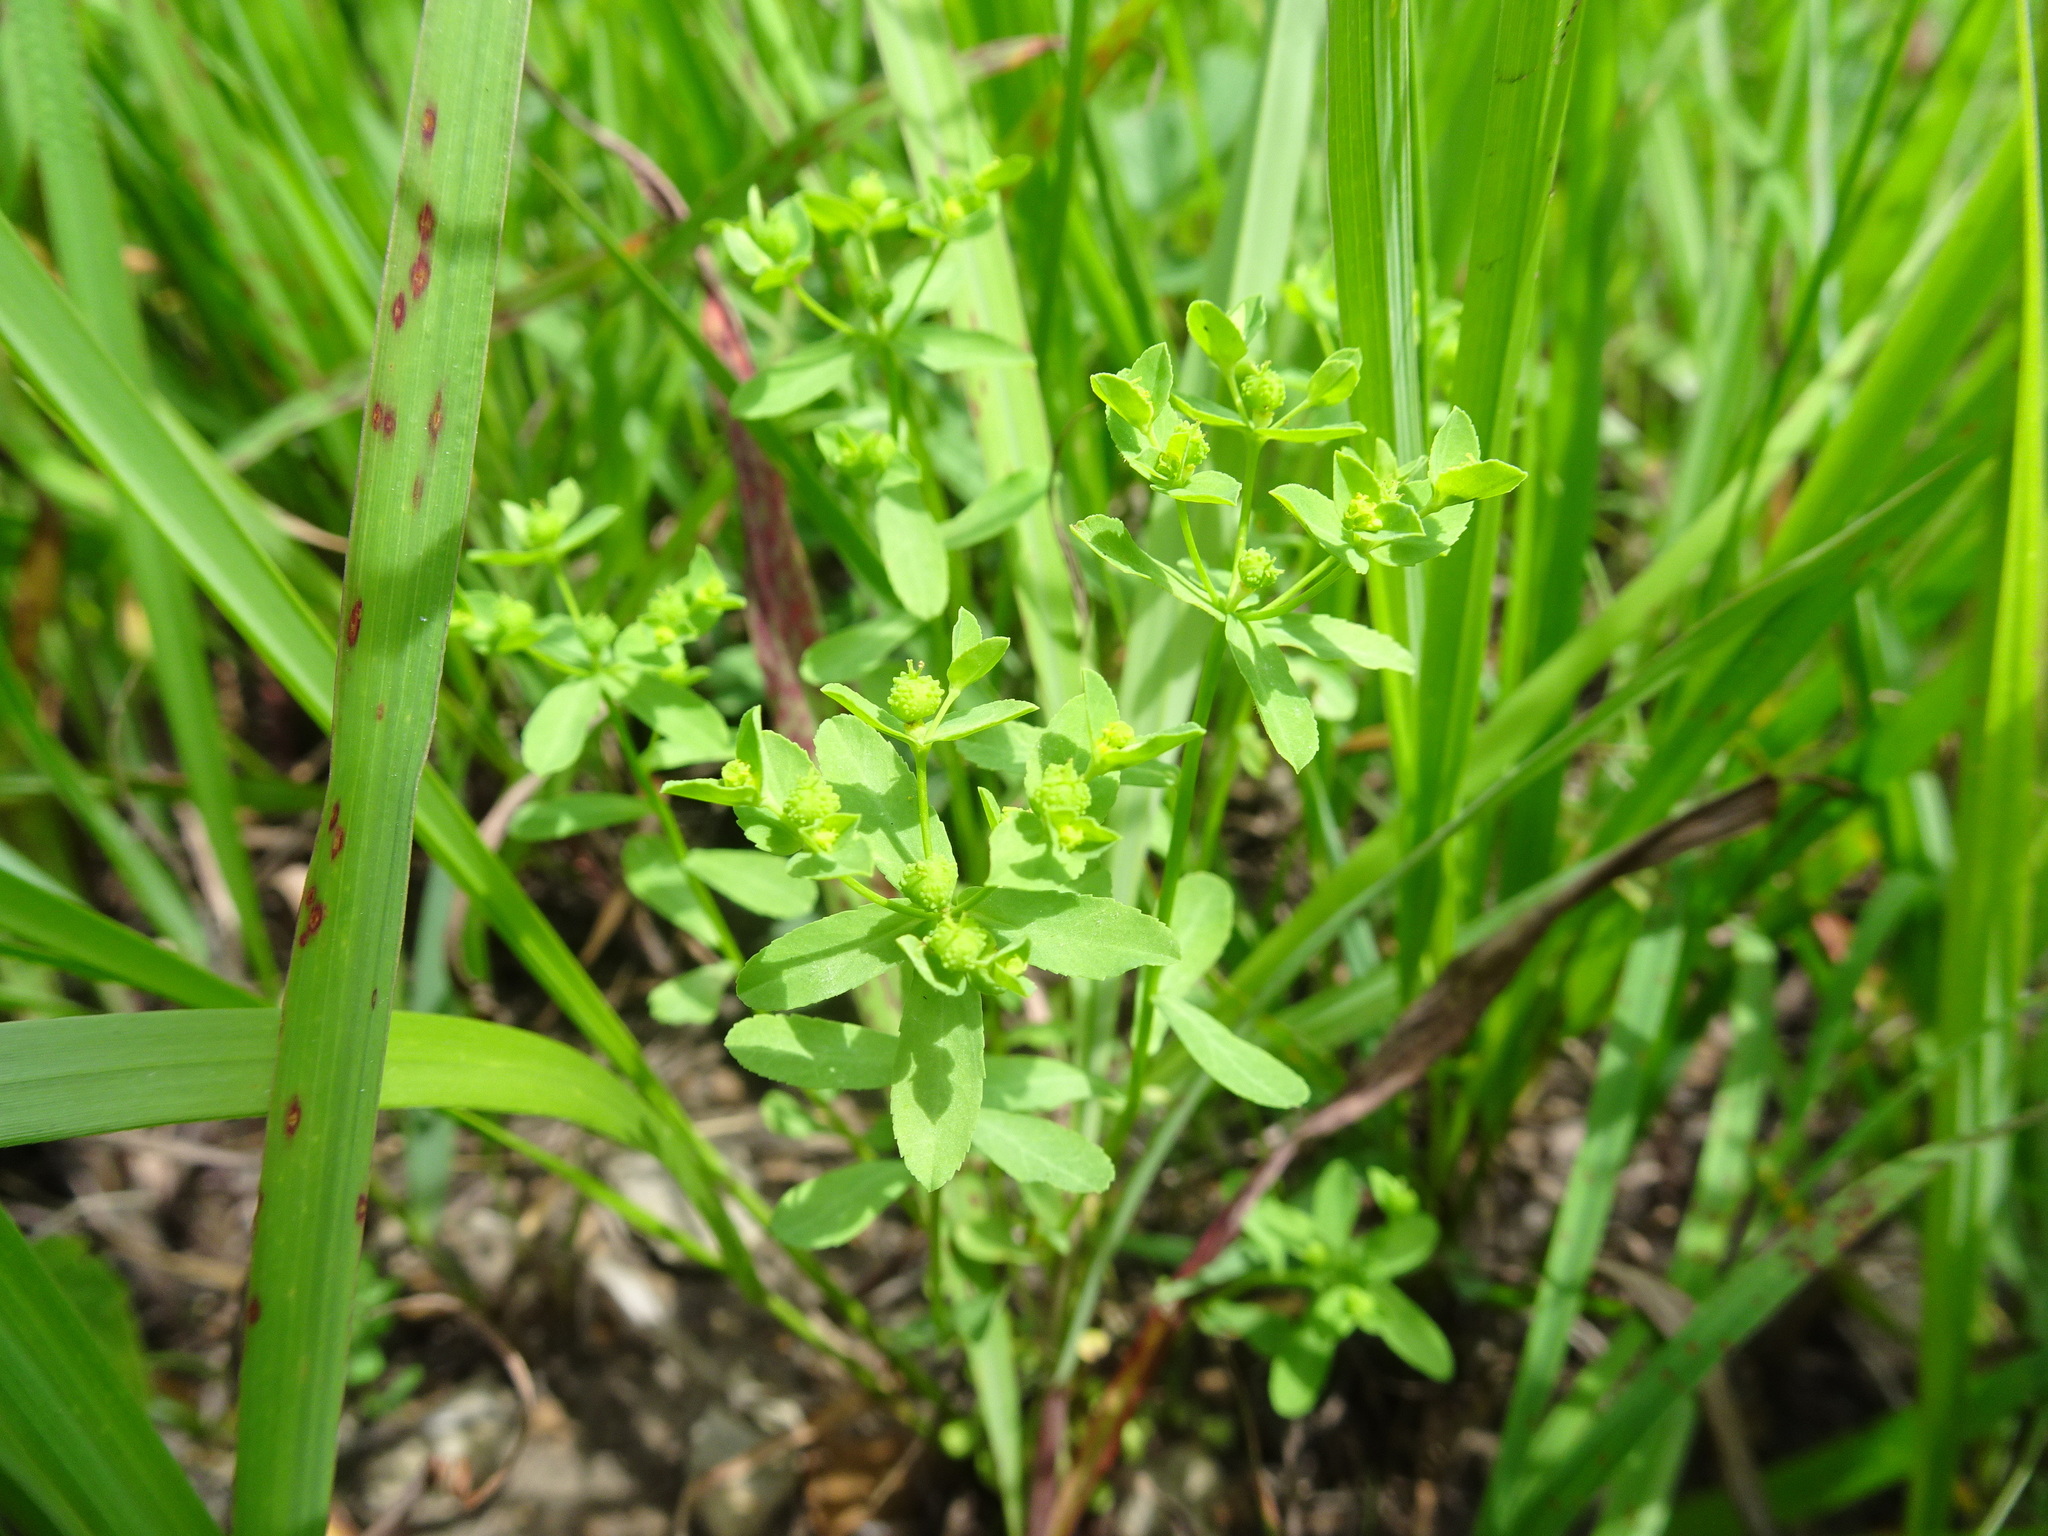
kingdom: Plantae
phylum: Tracheophyta
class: Magnoliopsida
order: Malpighiales
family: Euphorbiaceae
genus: Euphorbia
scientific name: Euphorbia spathulata
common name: Blunt spurge
